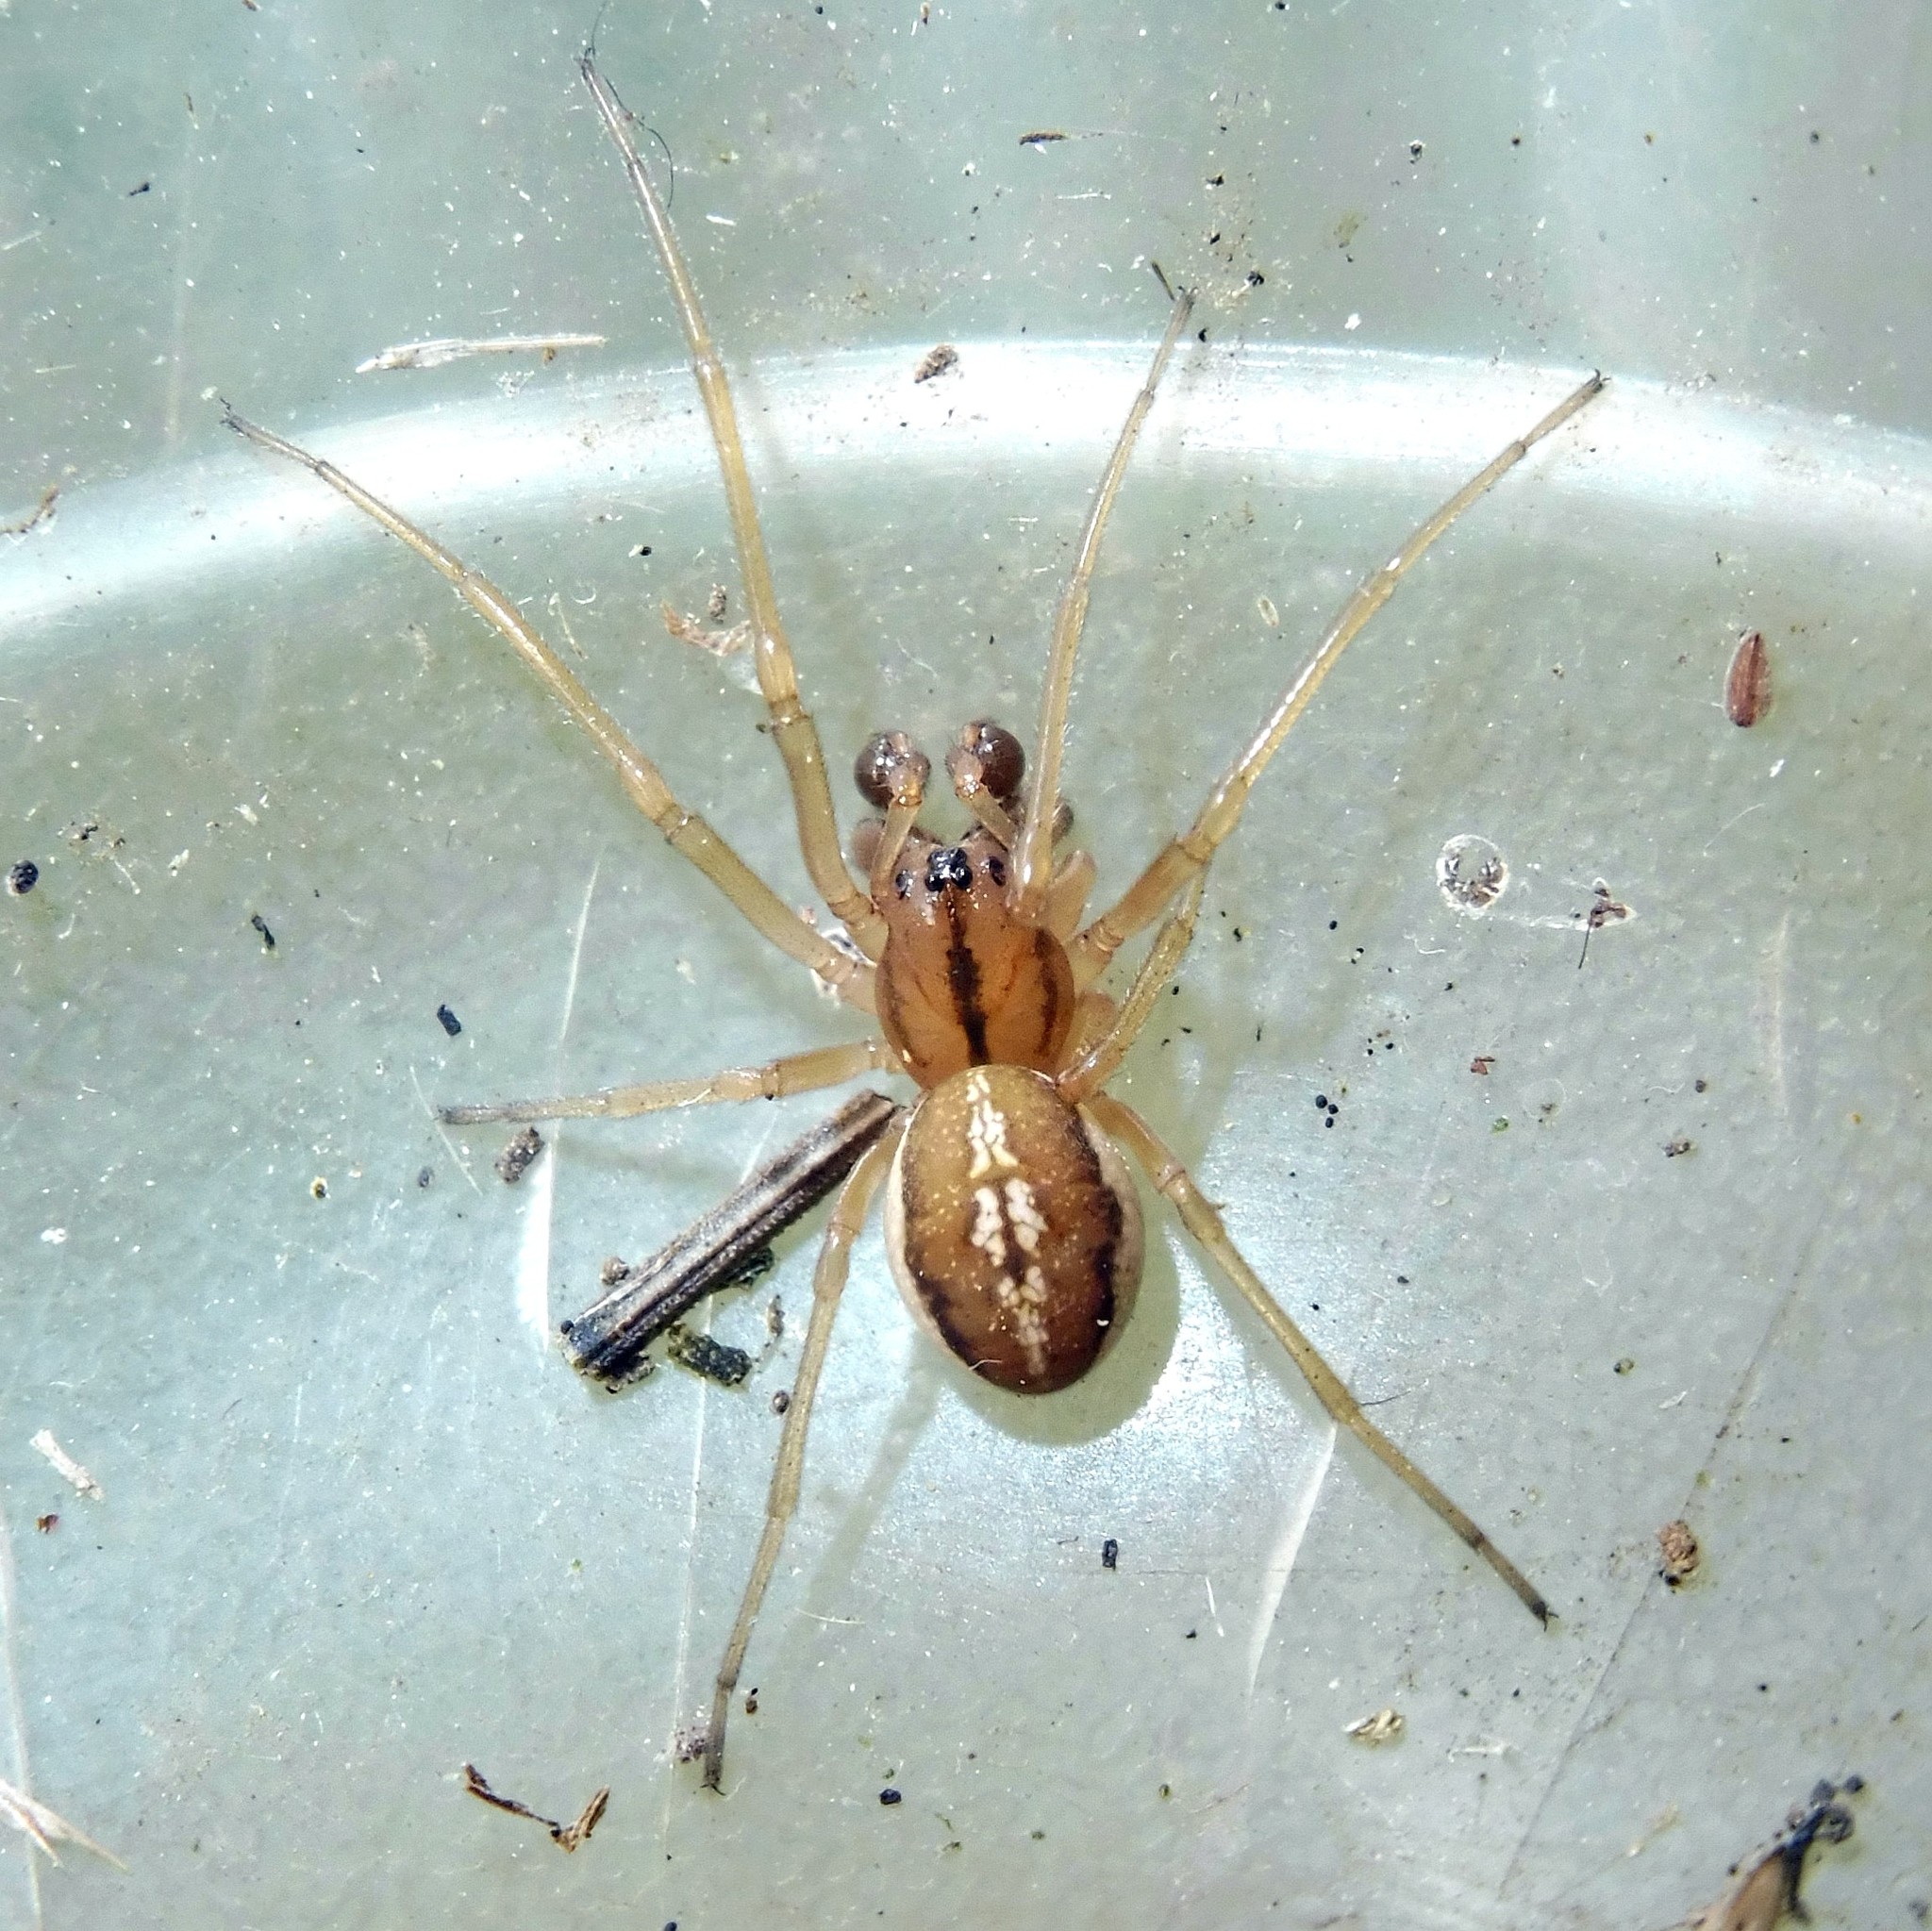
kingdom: Animalia
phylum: Arthropoda
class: Arachnida
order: Araneae
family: Tetragnathidae
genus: Pachygnatha
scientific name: Pachygnatha clercki
